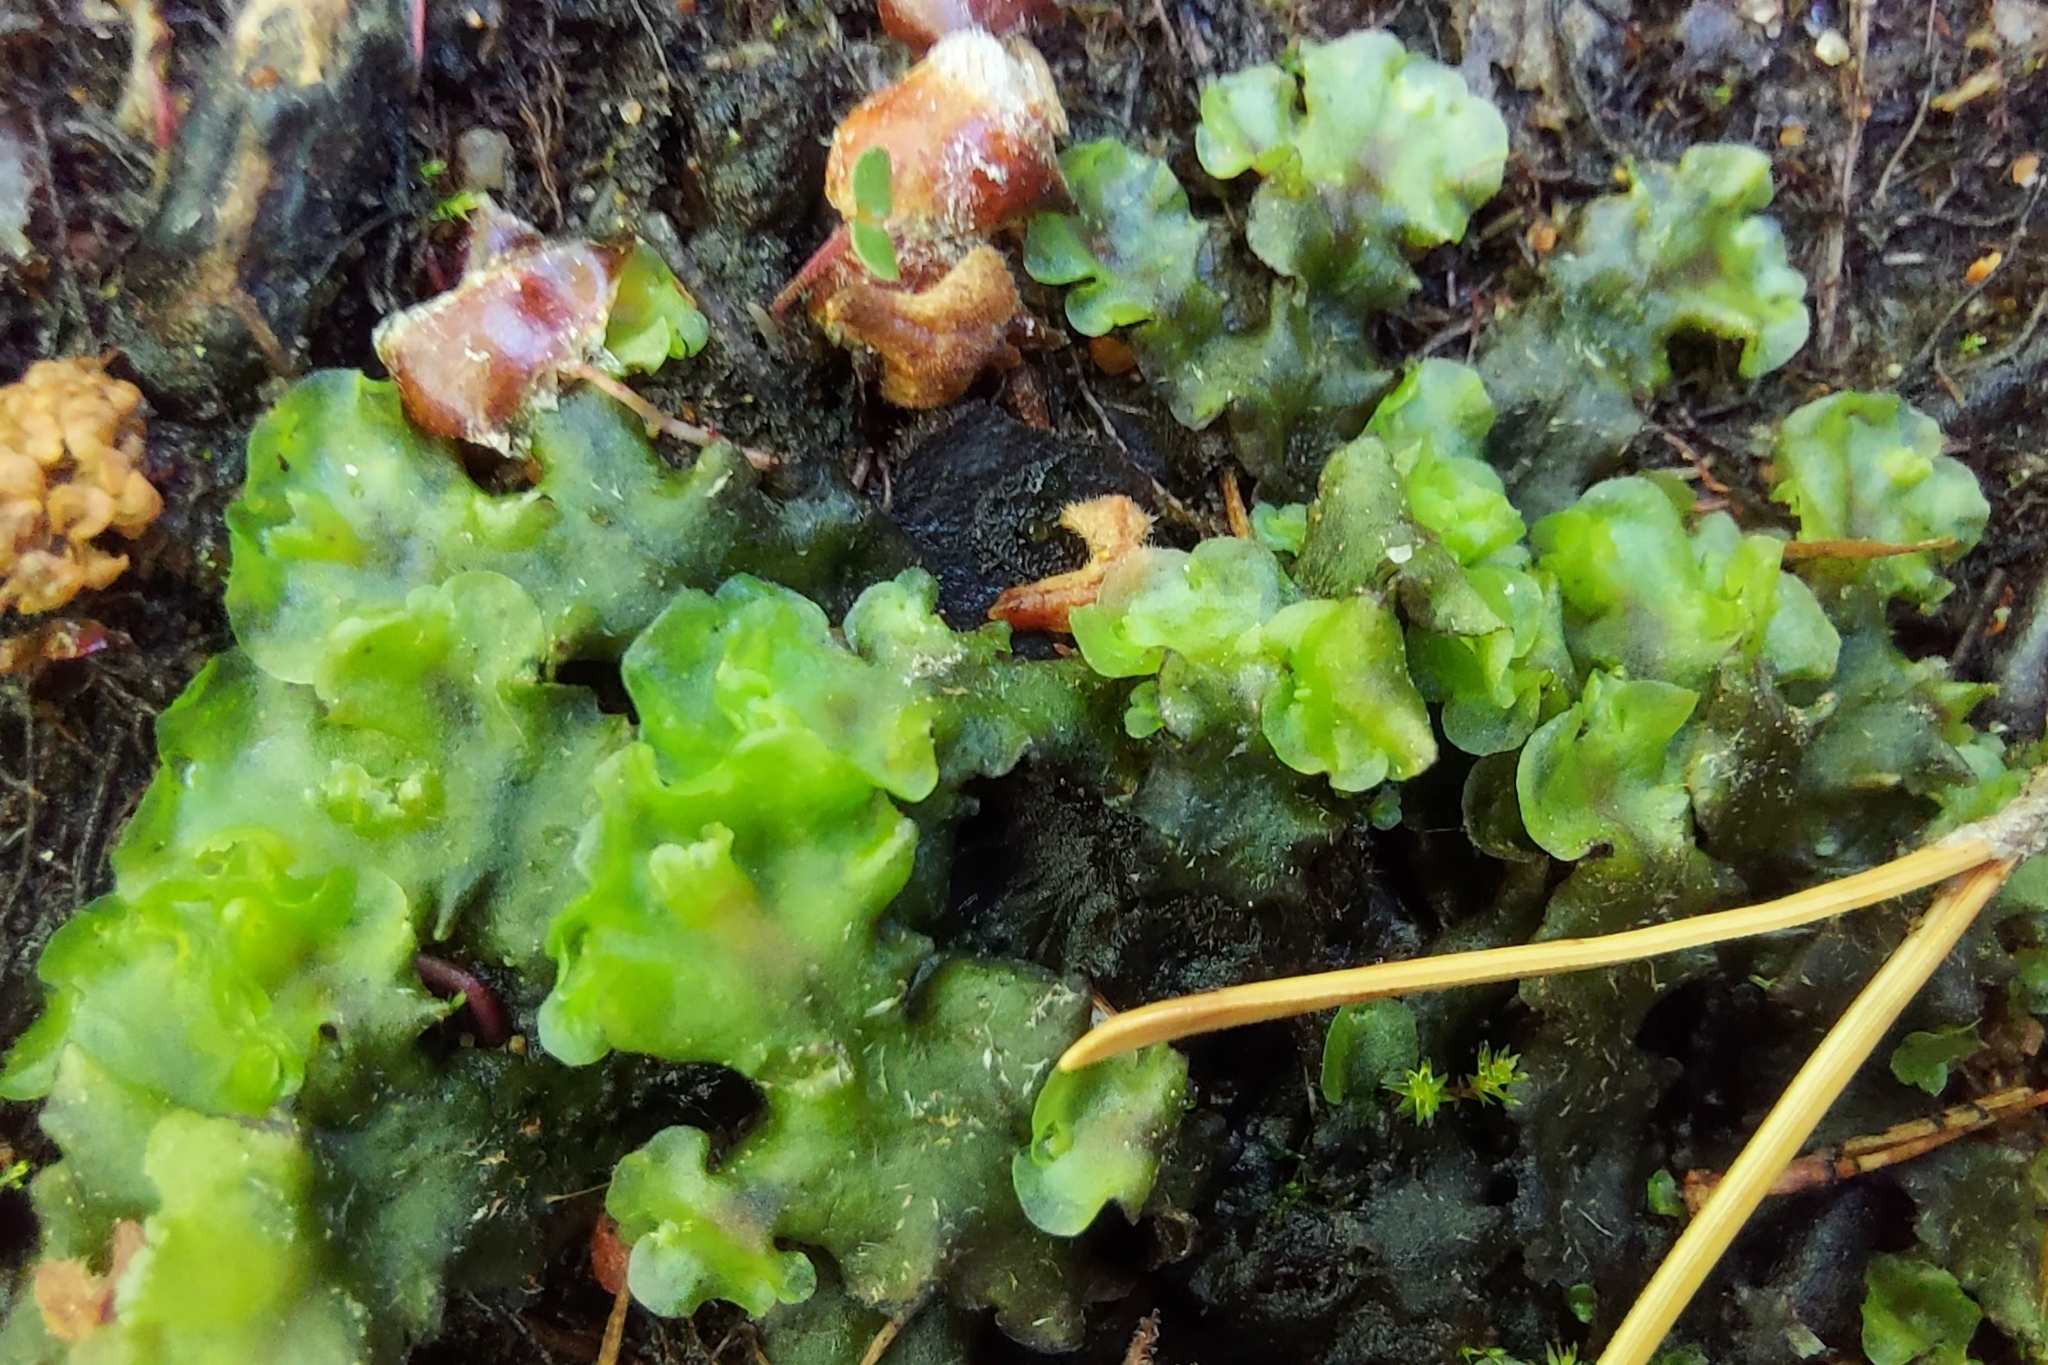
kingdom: Plantae
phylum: Marchantiophyta
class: Jungermanniopsida
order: Pelliales
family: Pelliaceae
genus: Apopellia
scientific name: Apopellia endiviifolia
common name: Endive pellia
